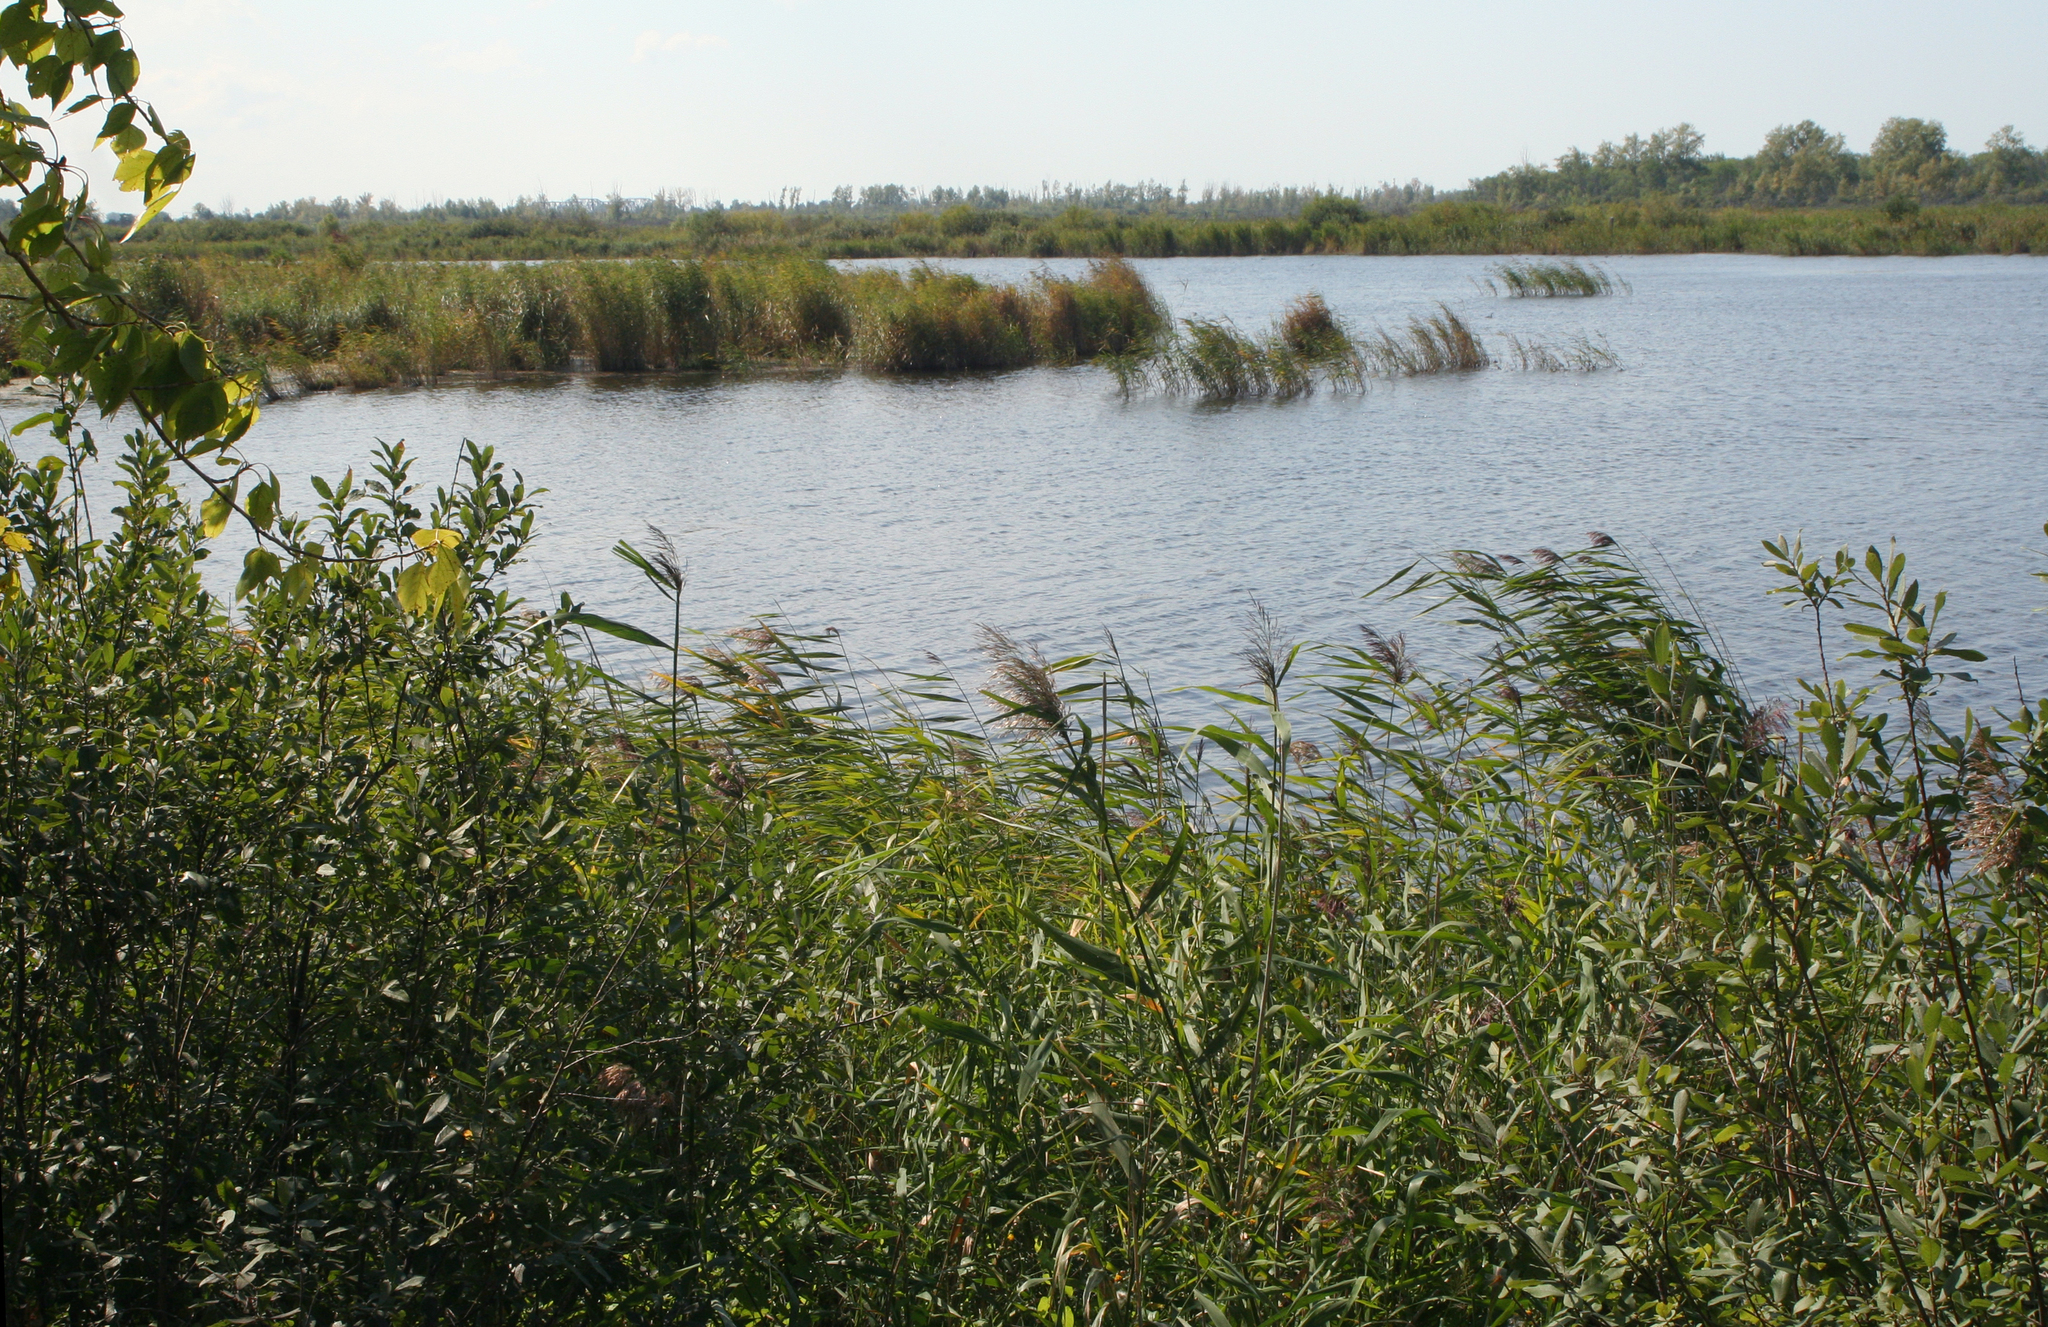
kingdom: Plantae
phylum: Tracheophyta
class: Liliopsida
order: Poales
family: Poaceae
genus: Phragmites
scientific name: Phragmites australis
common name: Common reed
